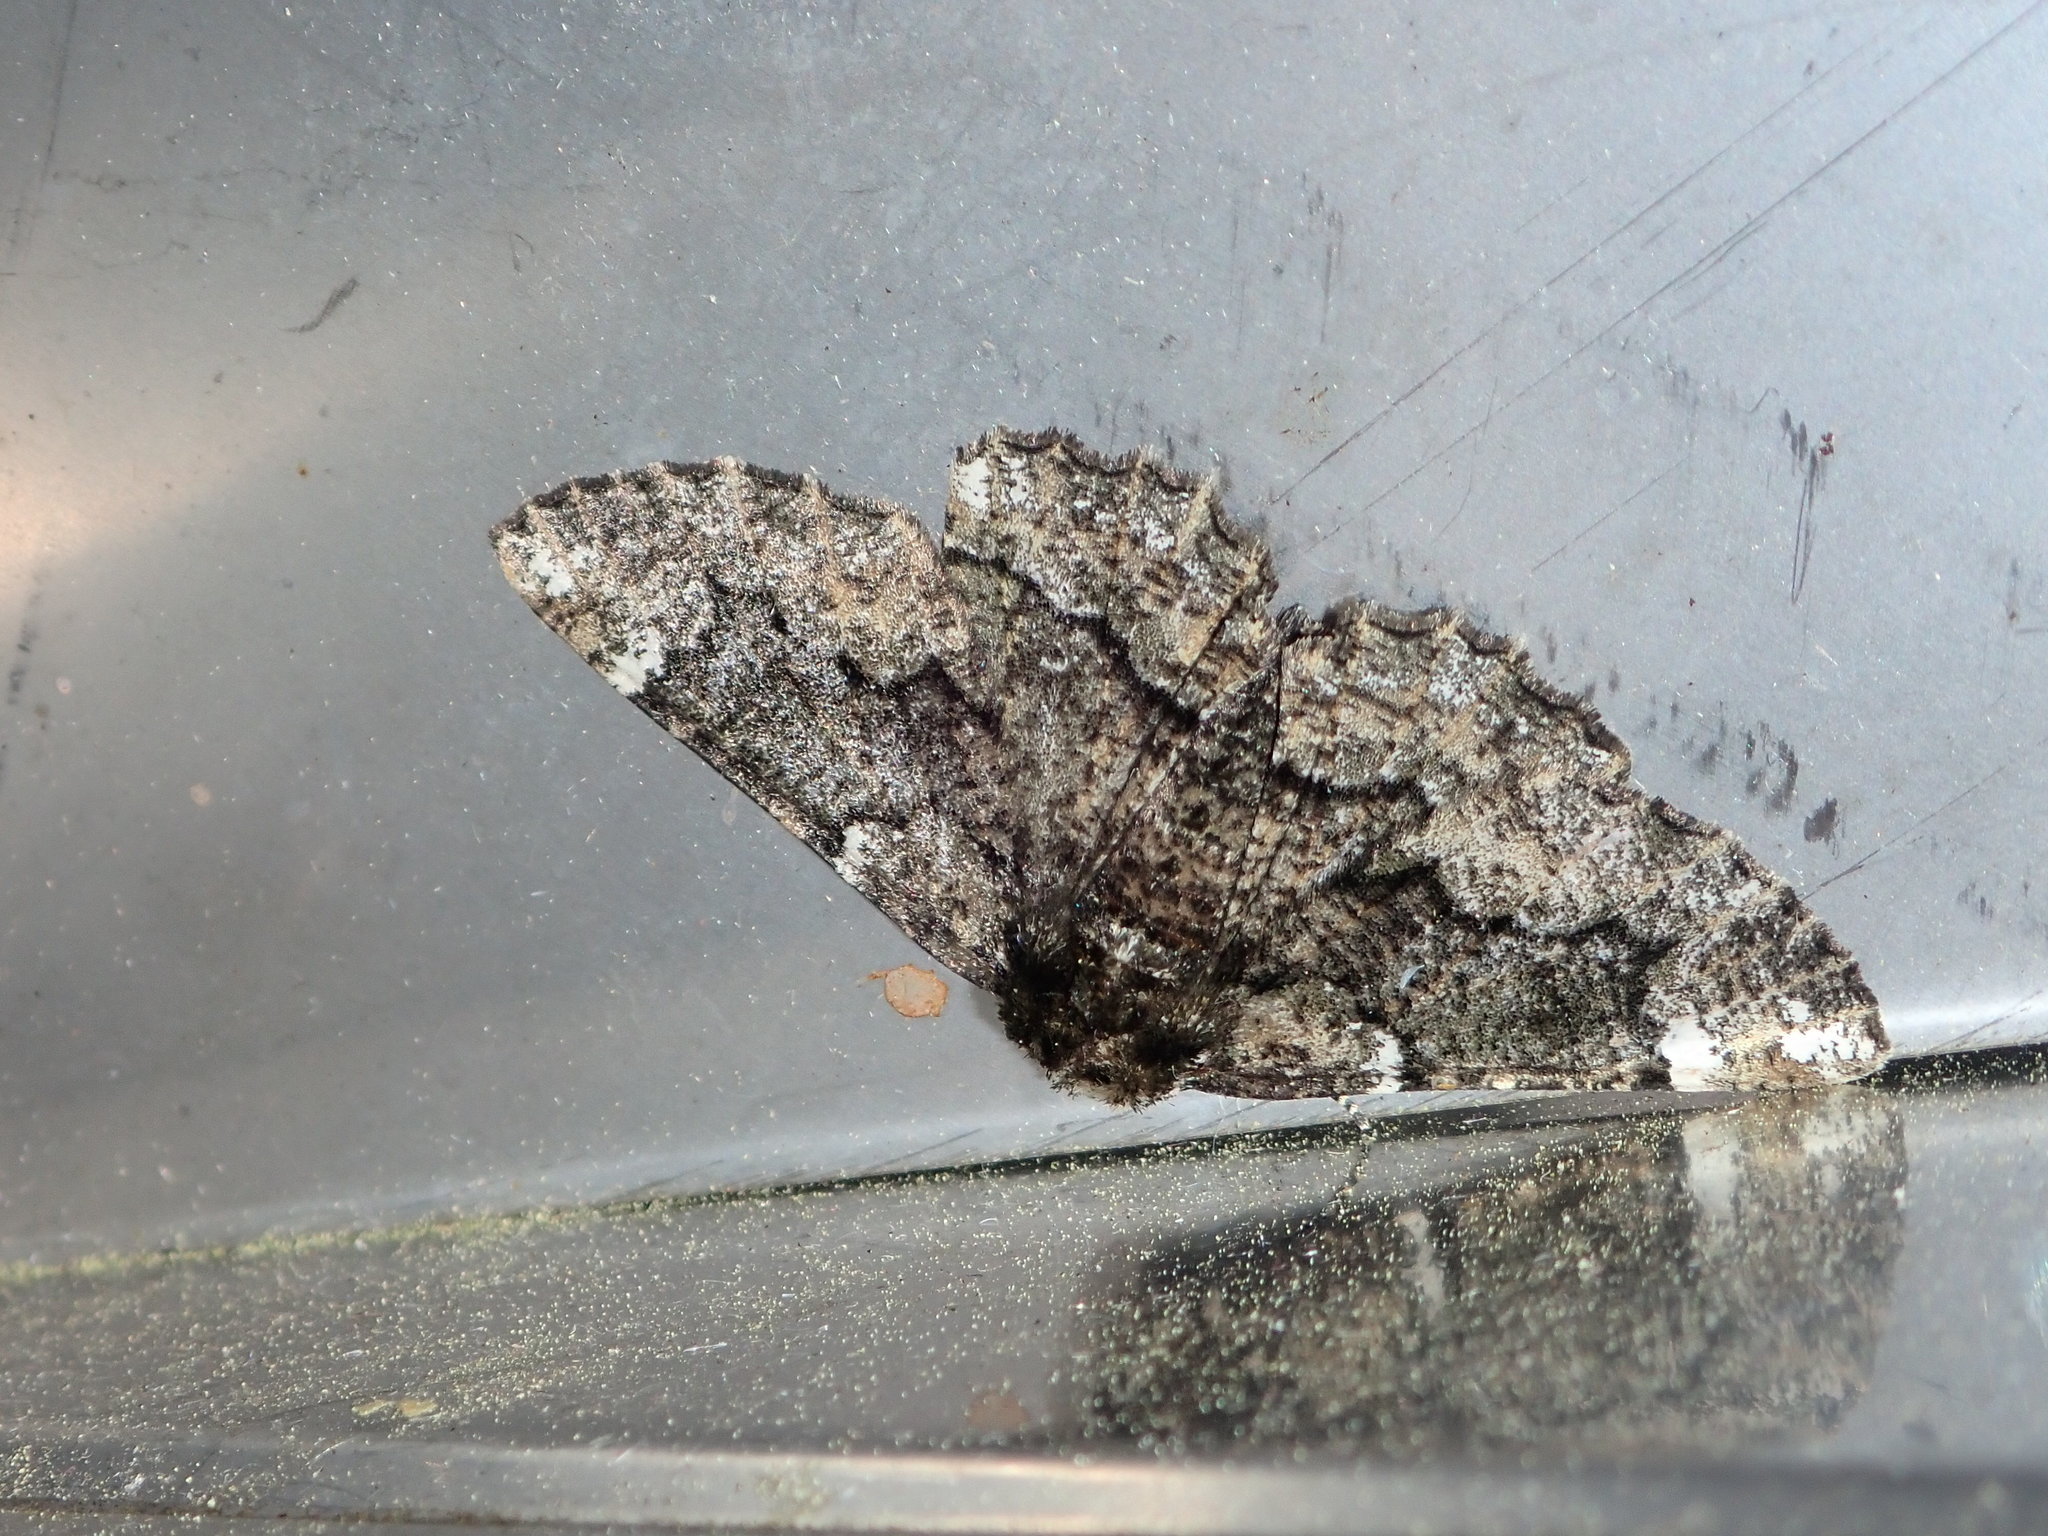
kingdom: Animalia
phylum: Arthropoda
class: Insecta
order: Lepidoptera
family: Geometridae
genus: Phaeoura
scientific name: Phaeoura quernaria
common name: Oak beauty
